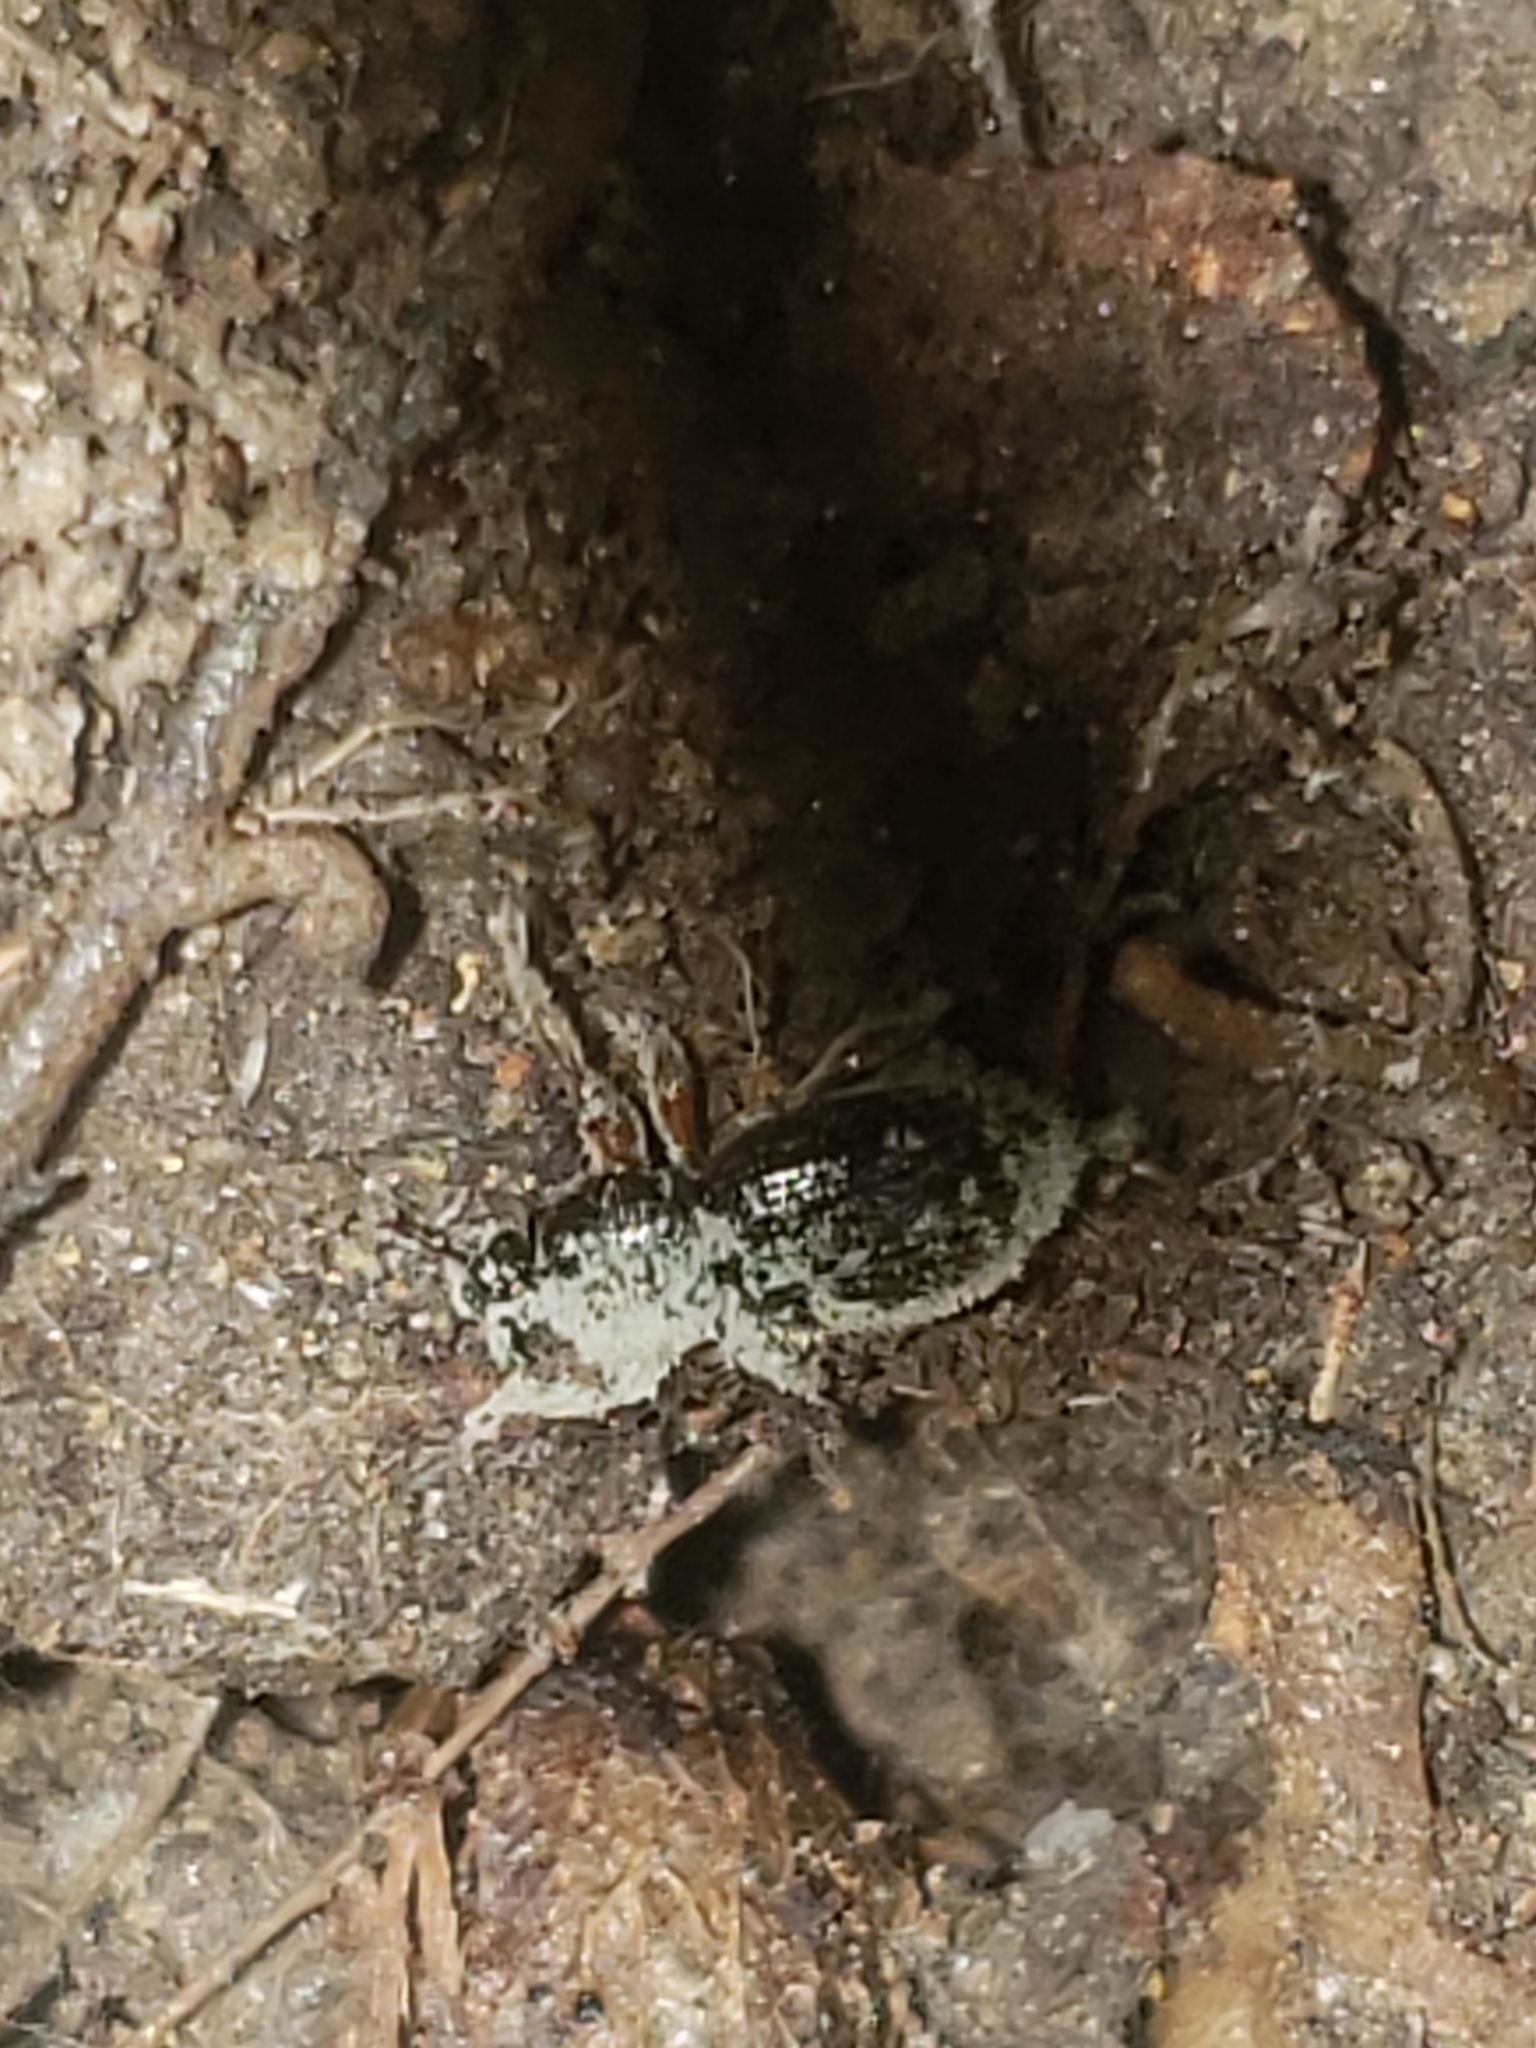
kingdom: Animalia
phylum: Arthropoda
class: Insecta
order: Coleoptera
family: Curculionidae
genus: Exomias
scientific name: Exomias pellucidus
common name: Hairy spider weevil
